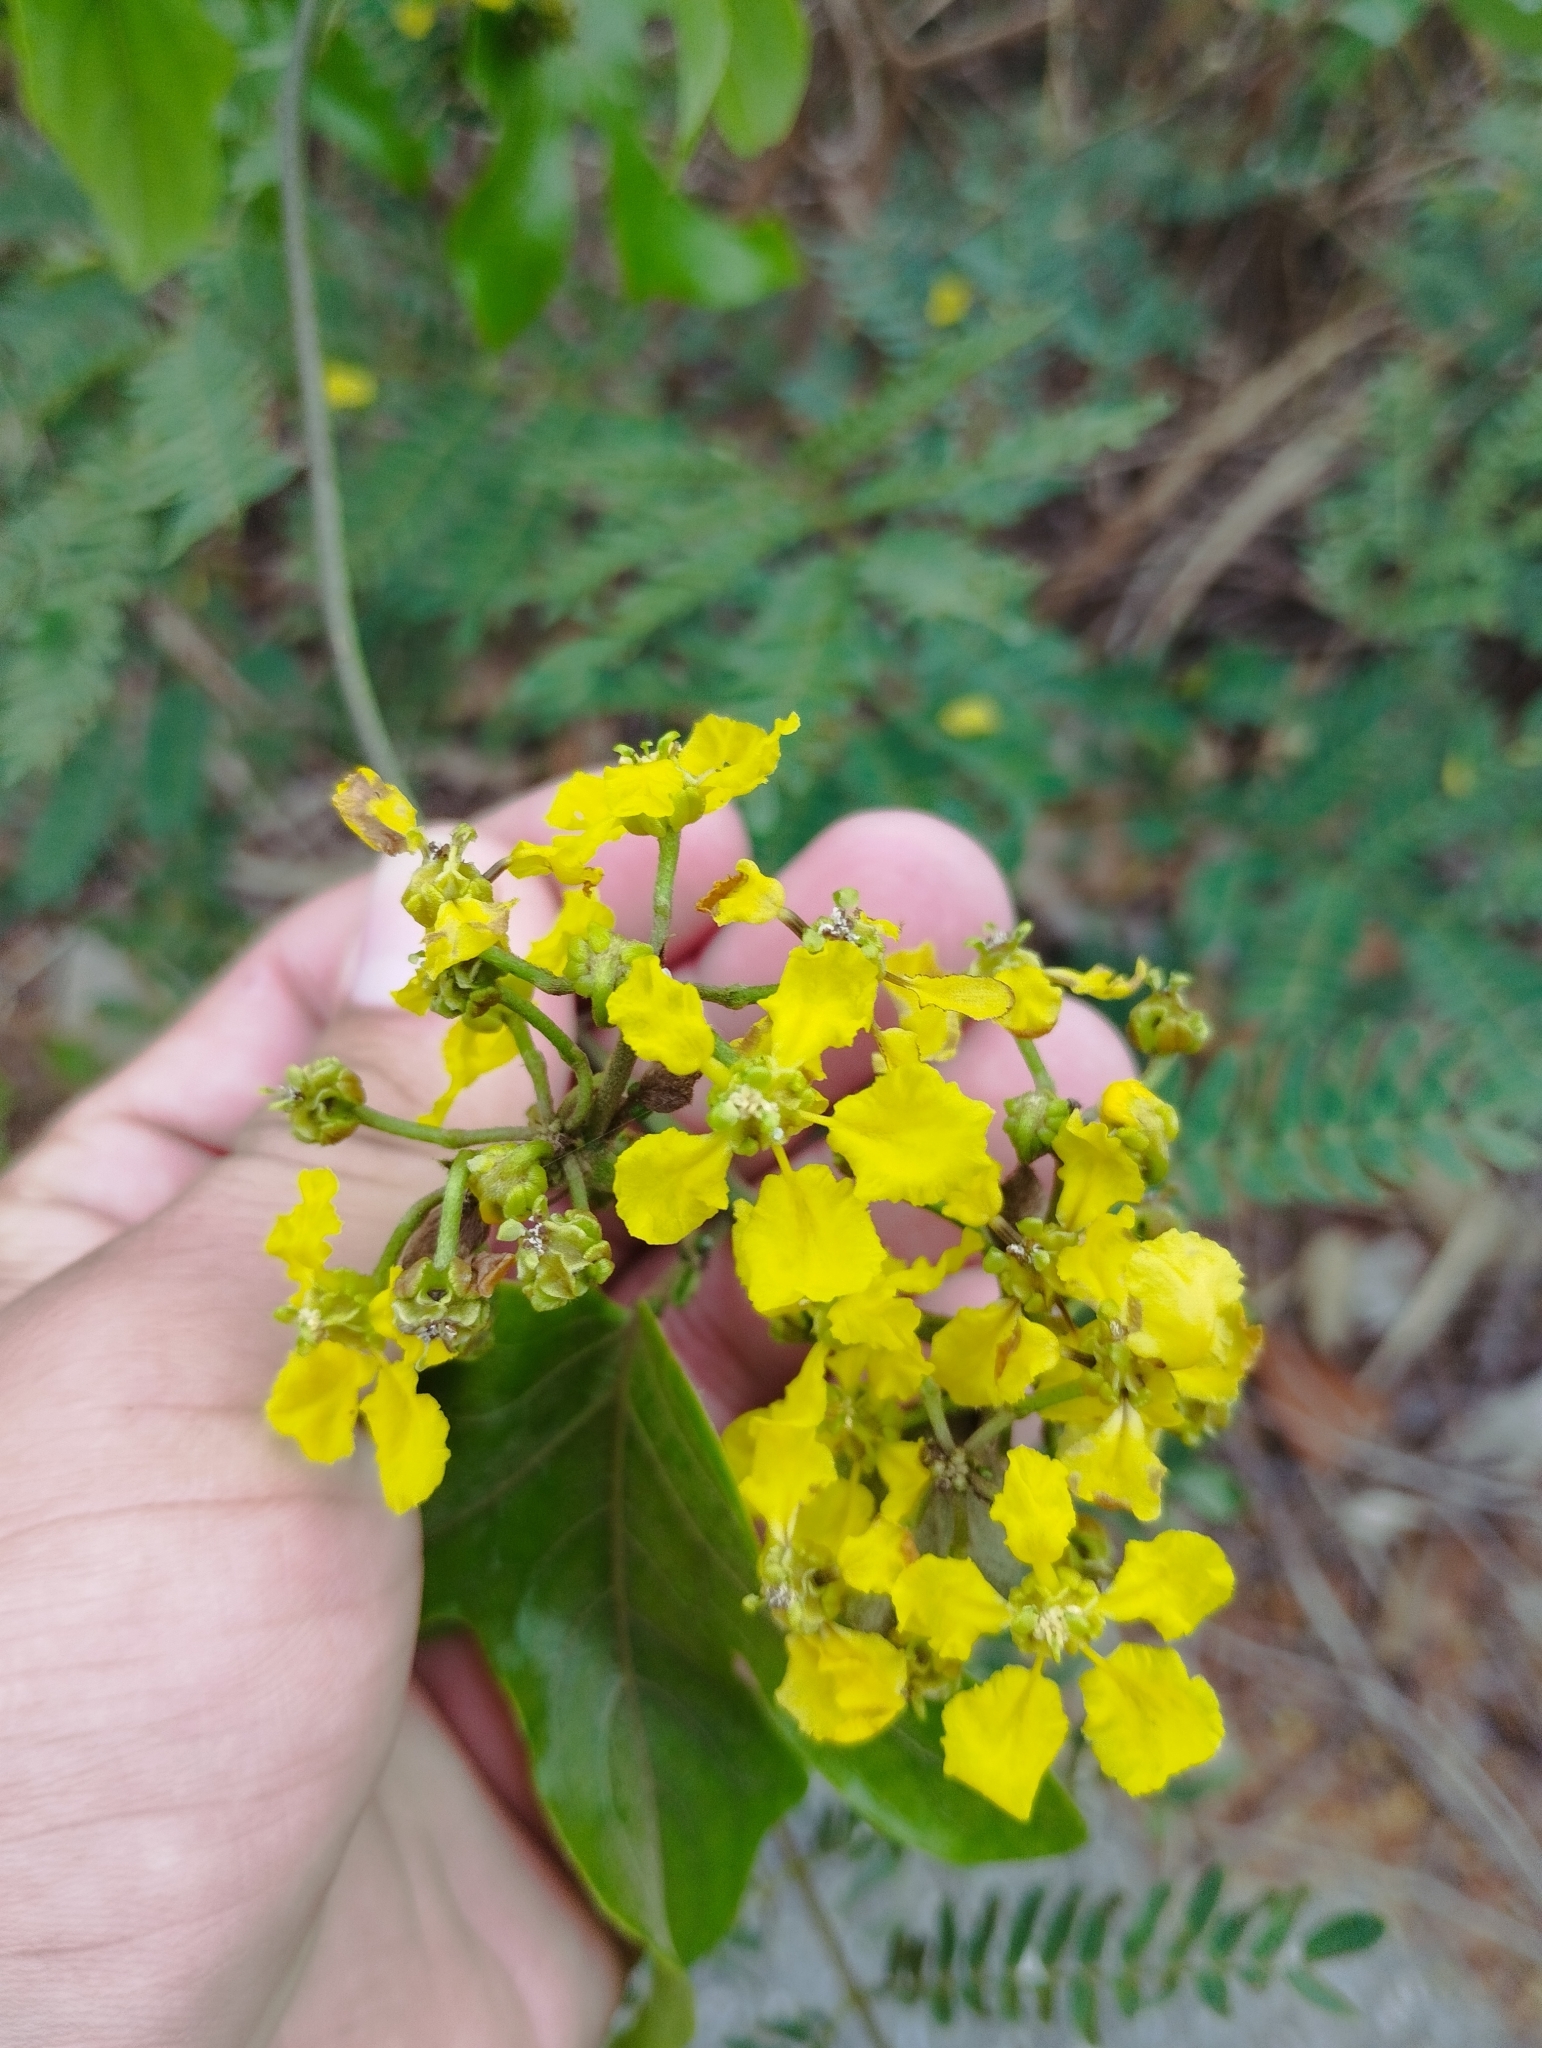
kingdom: Plantae
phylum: Tracheophyta
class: Magnoliopsida
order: Malpighiales
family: Malpighiaceae
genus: Callaeum
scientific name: Callaeum macropterum
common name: Mexican butterfly-vine
